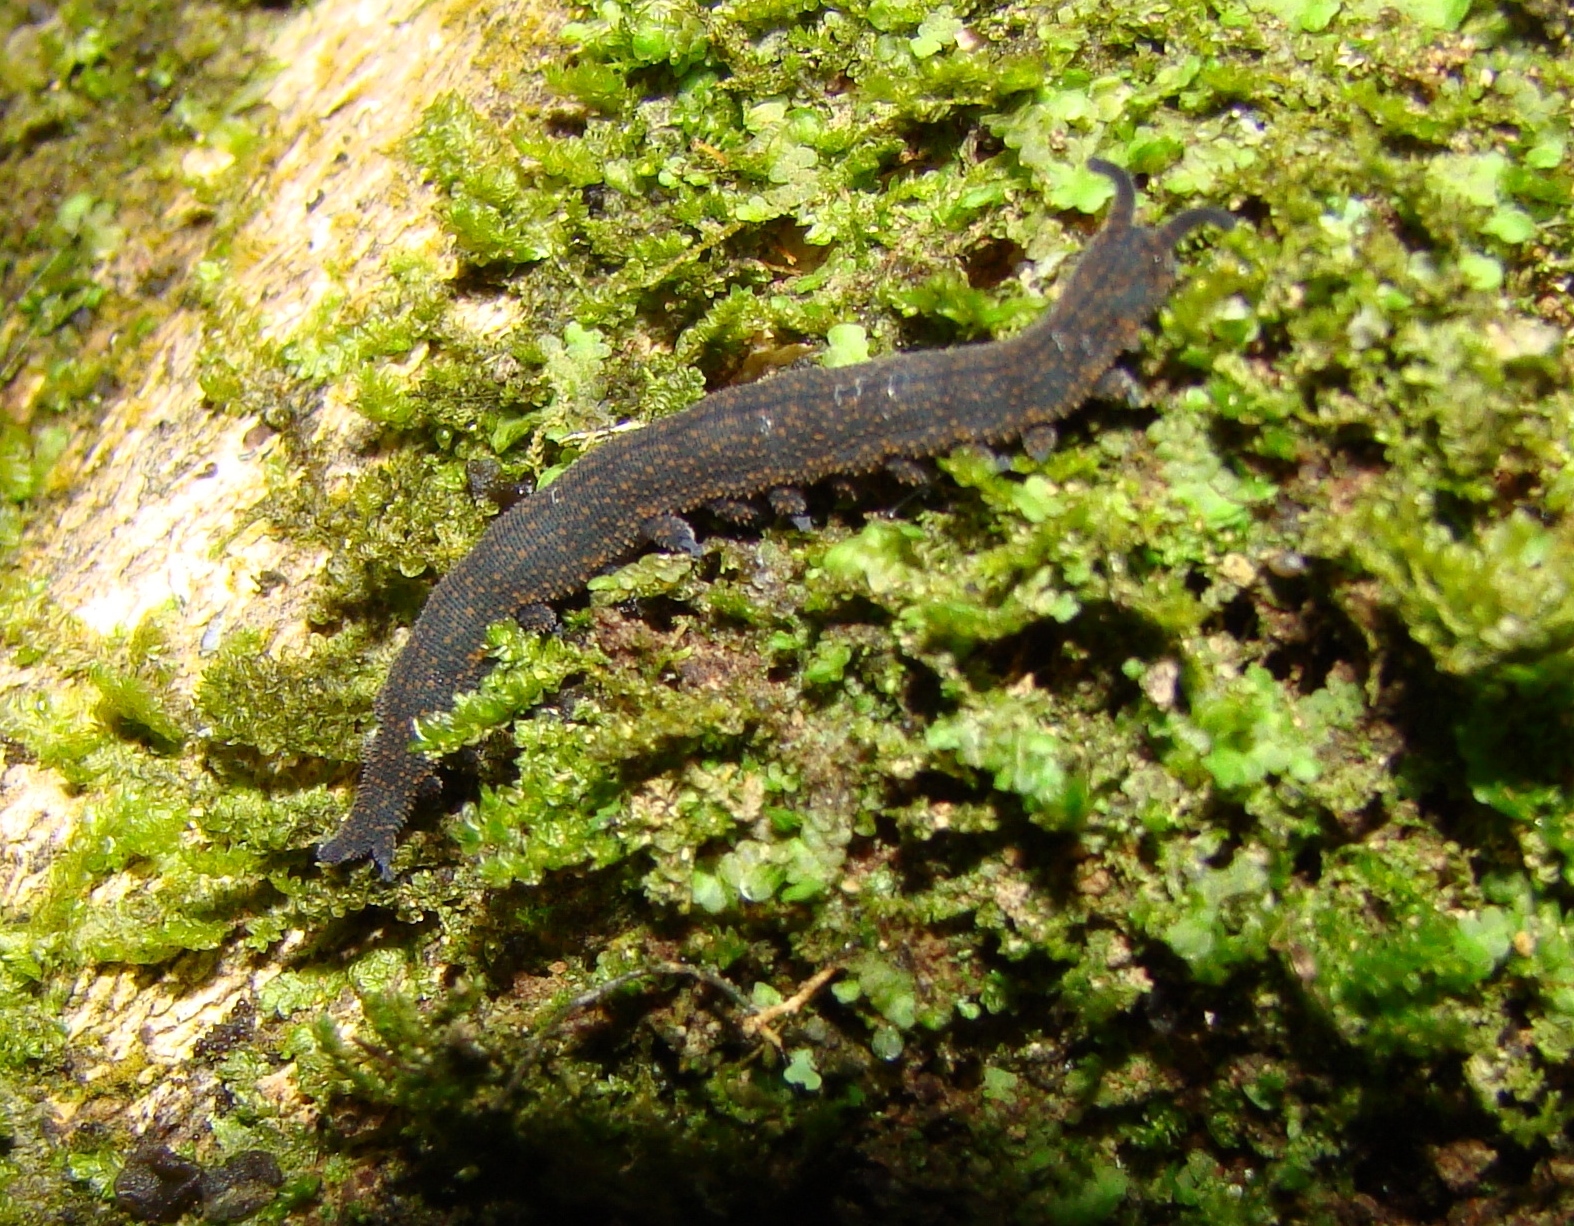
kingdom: Animalia
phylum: Onychophora
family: Peripatopsidae
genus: Peripatoides
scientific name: Peripatoides novaezealandiae
